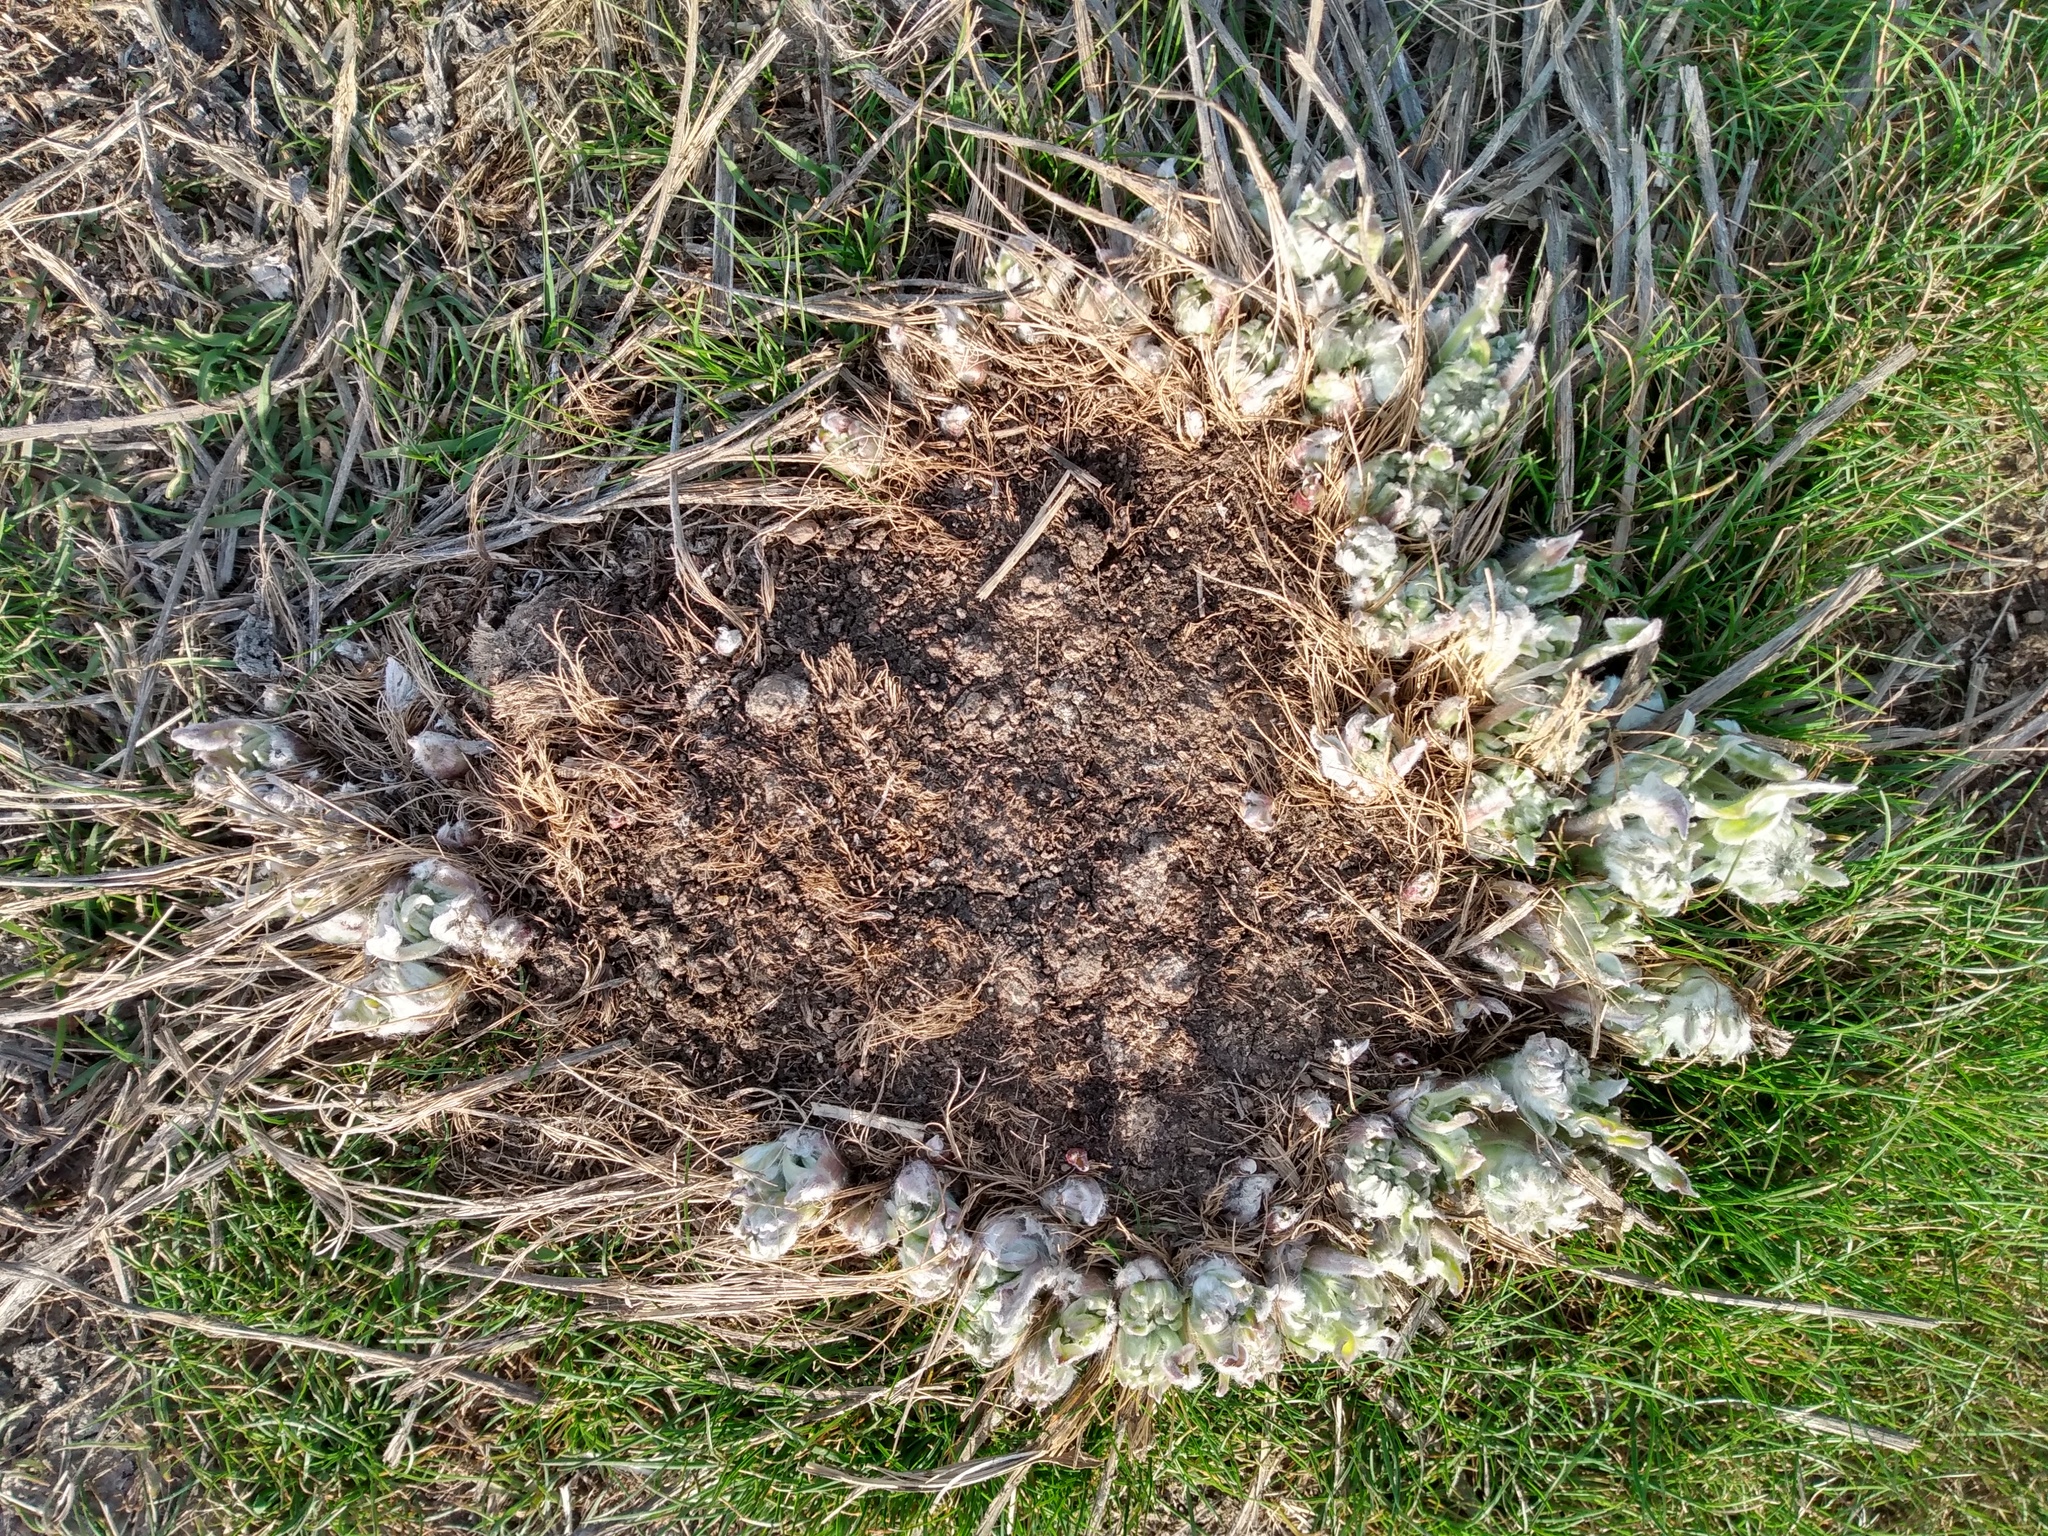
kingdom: Plantae
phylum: Tracheophyta
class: Magnoliopsida
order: Asterales
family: Asteraceae
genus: Wyethia
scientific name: Wyethia sagittata
